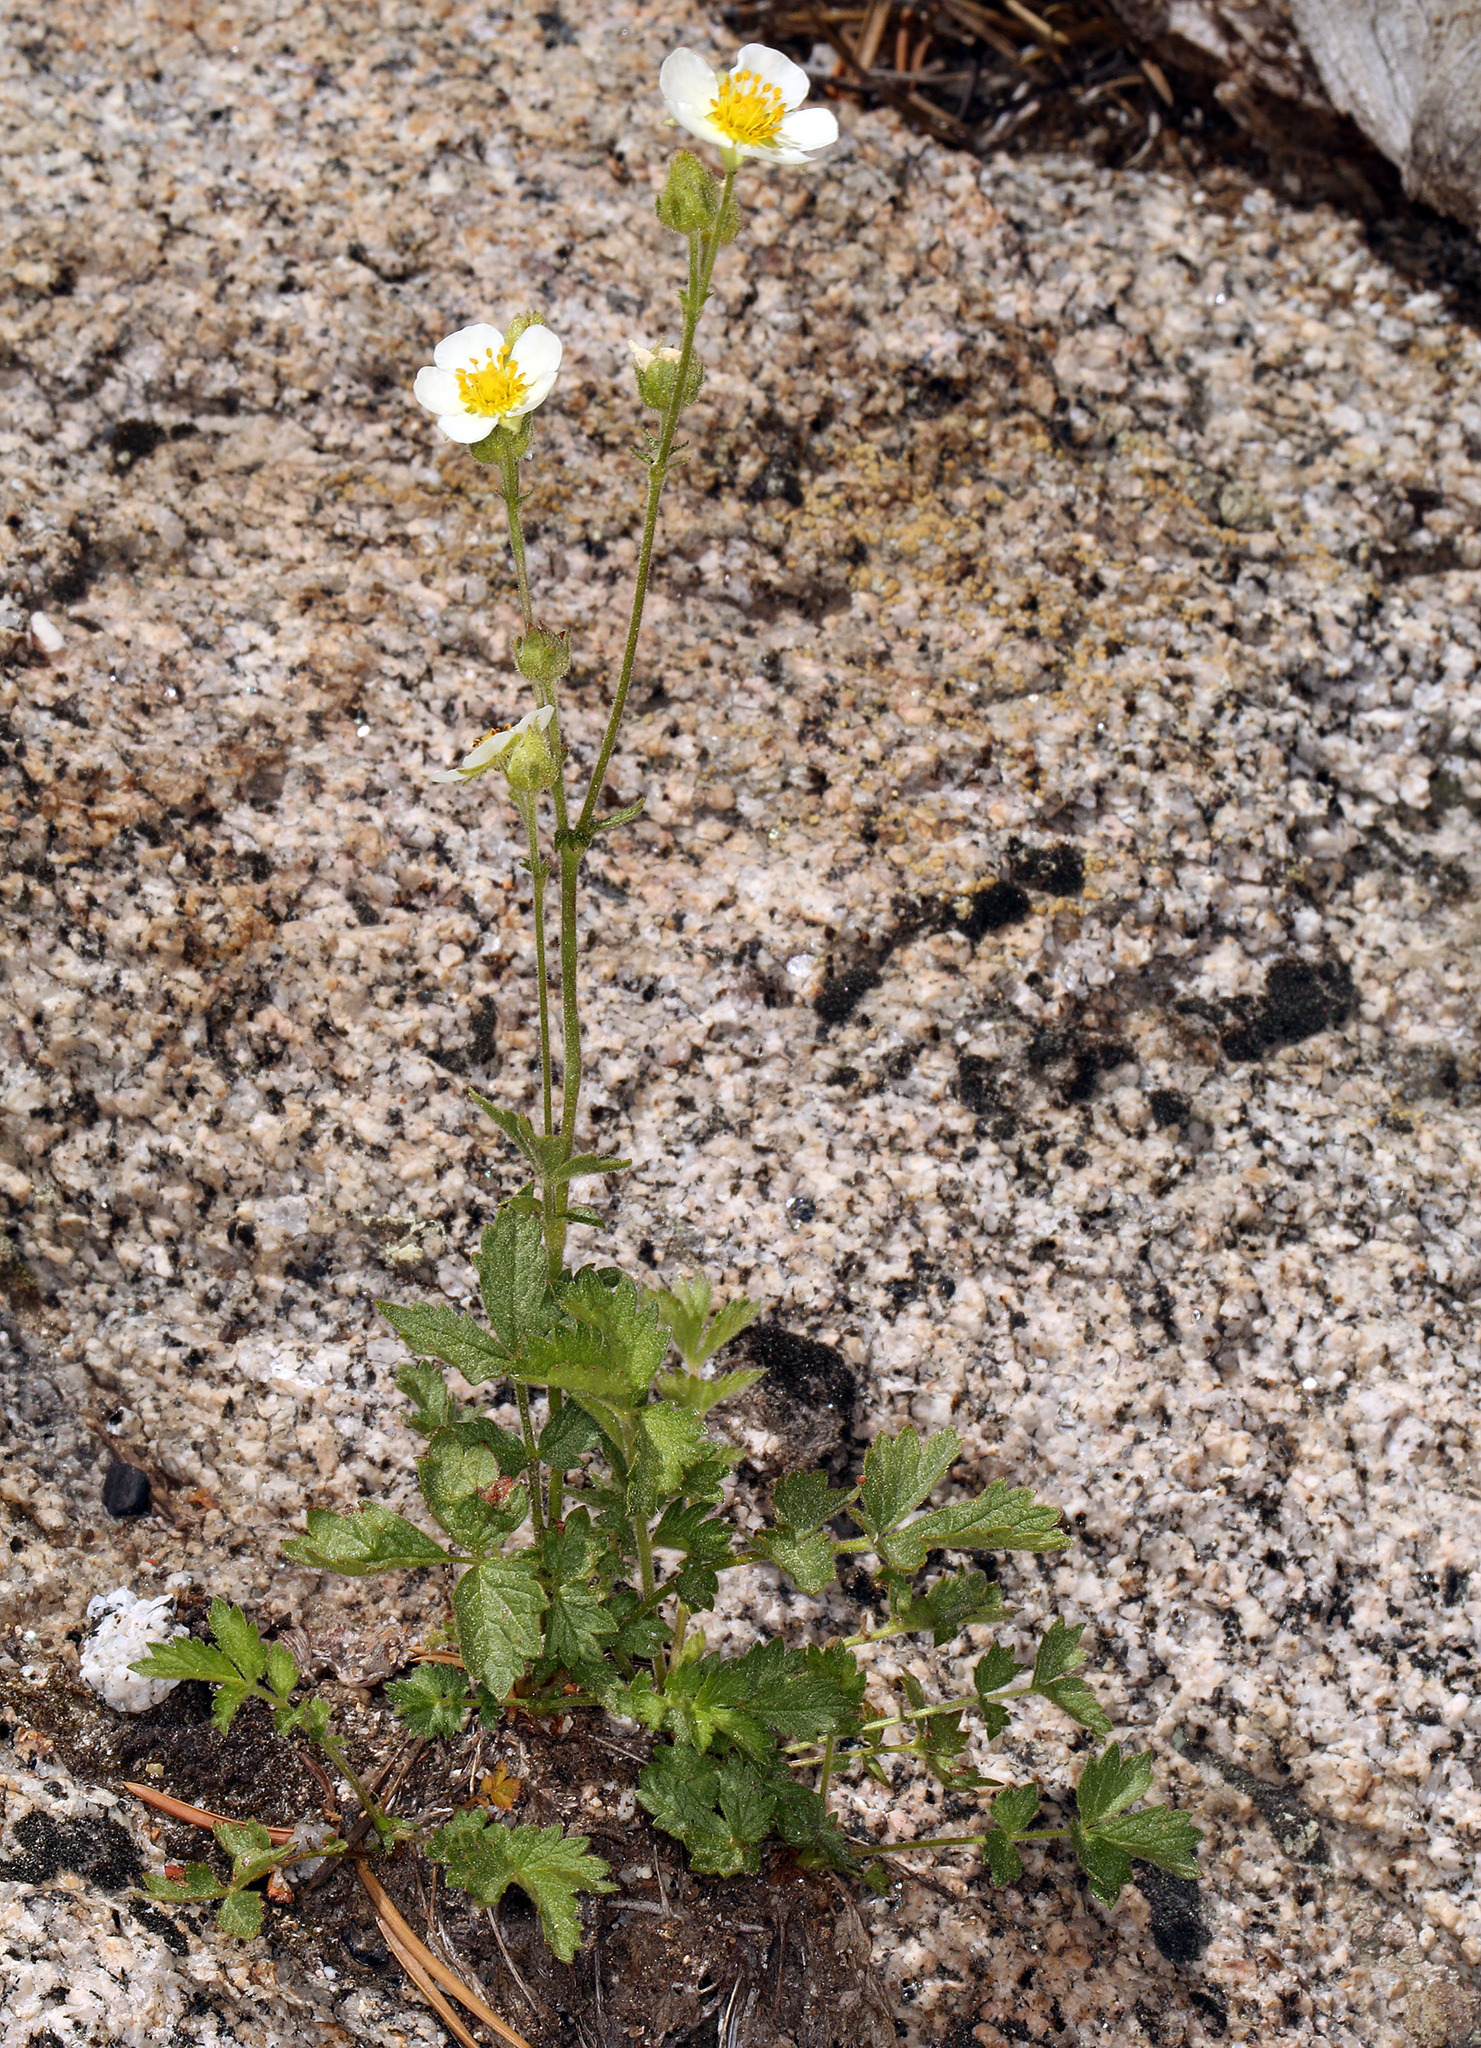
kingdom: Plantae
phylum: Tracheophyta
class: Magnoliopsida
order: Rosales
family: Rosaceae
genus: Drymocallis
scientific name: Drymocallis lactea
